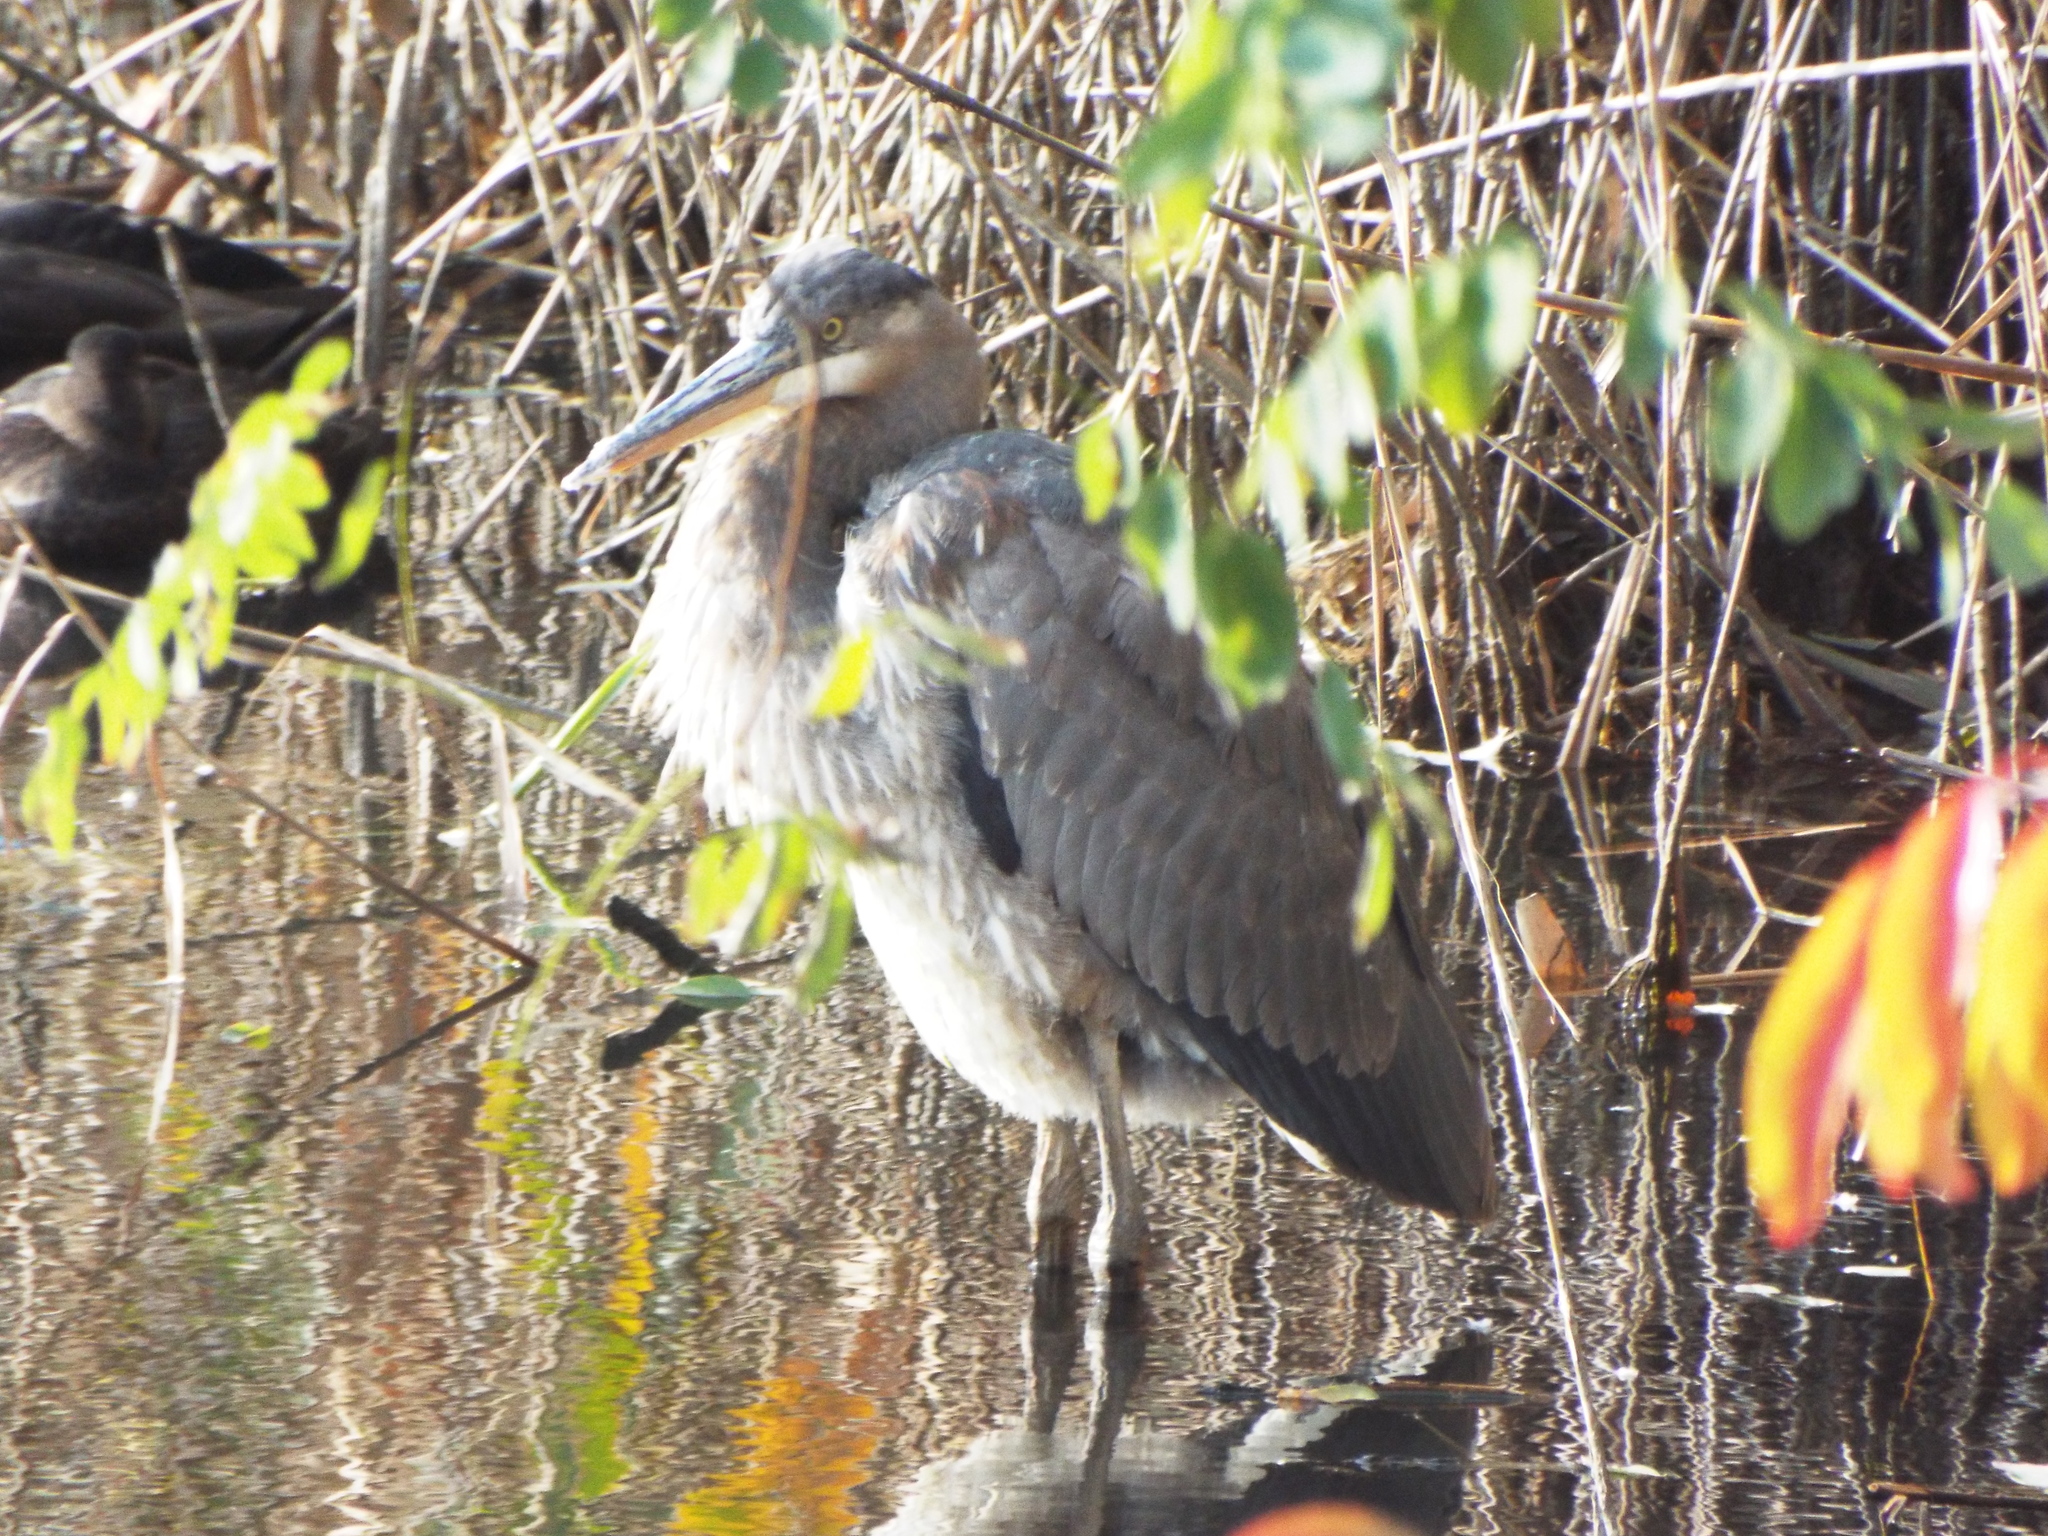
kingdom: Animalia
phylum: Chordata
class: Aves
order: Pelecaniformes
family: Ardeidae
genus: Ardea
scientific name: Ardea herodias
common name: Great blue heron
